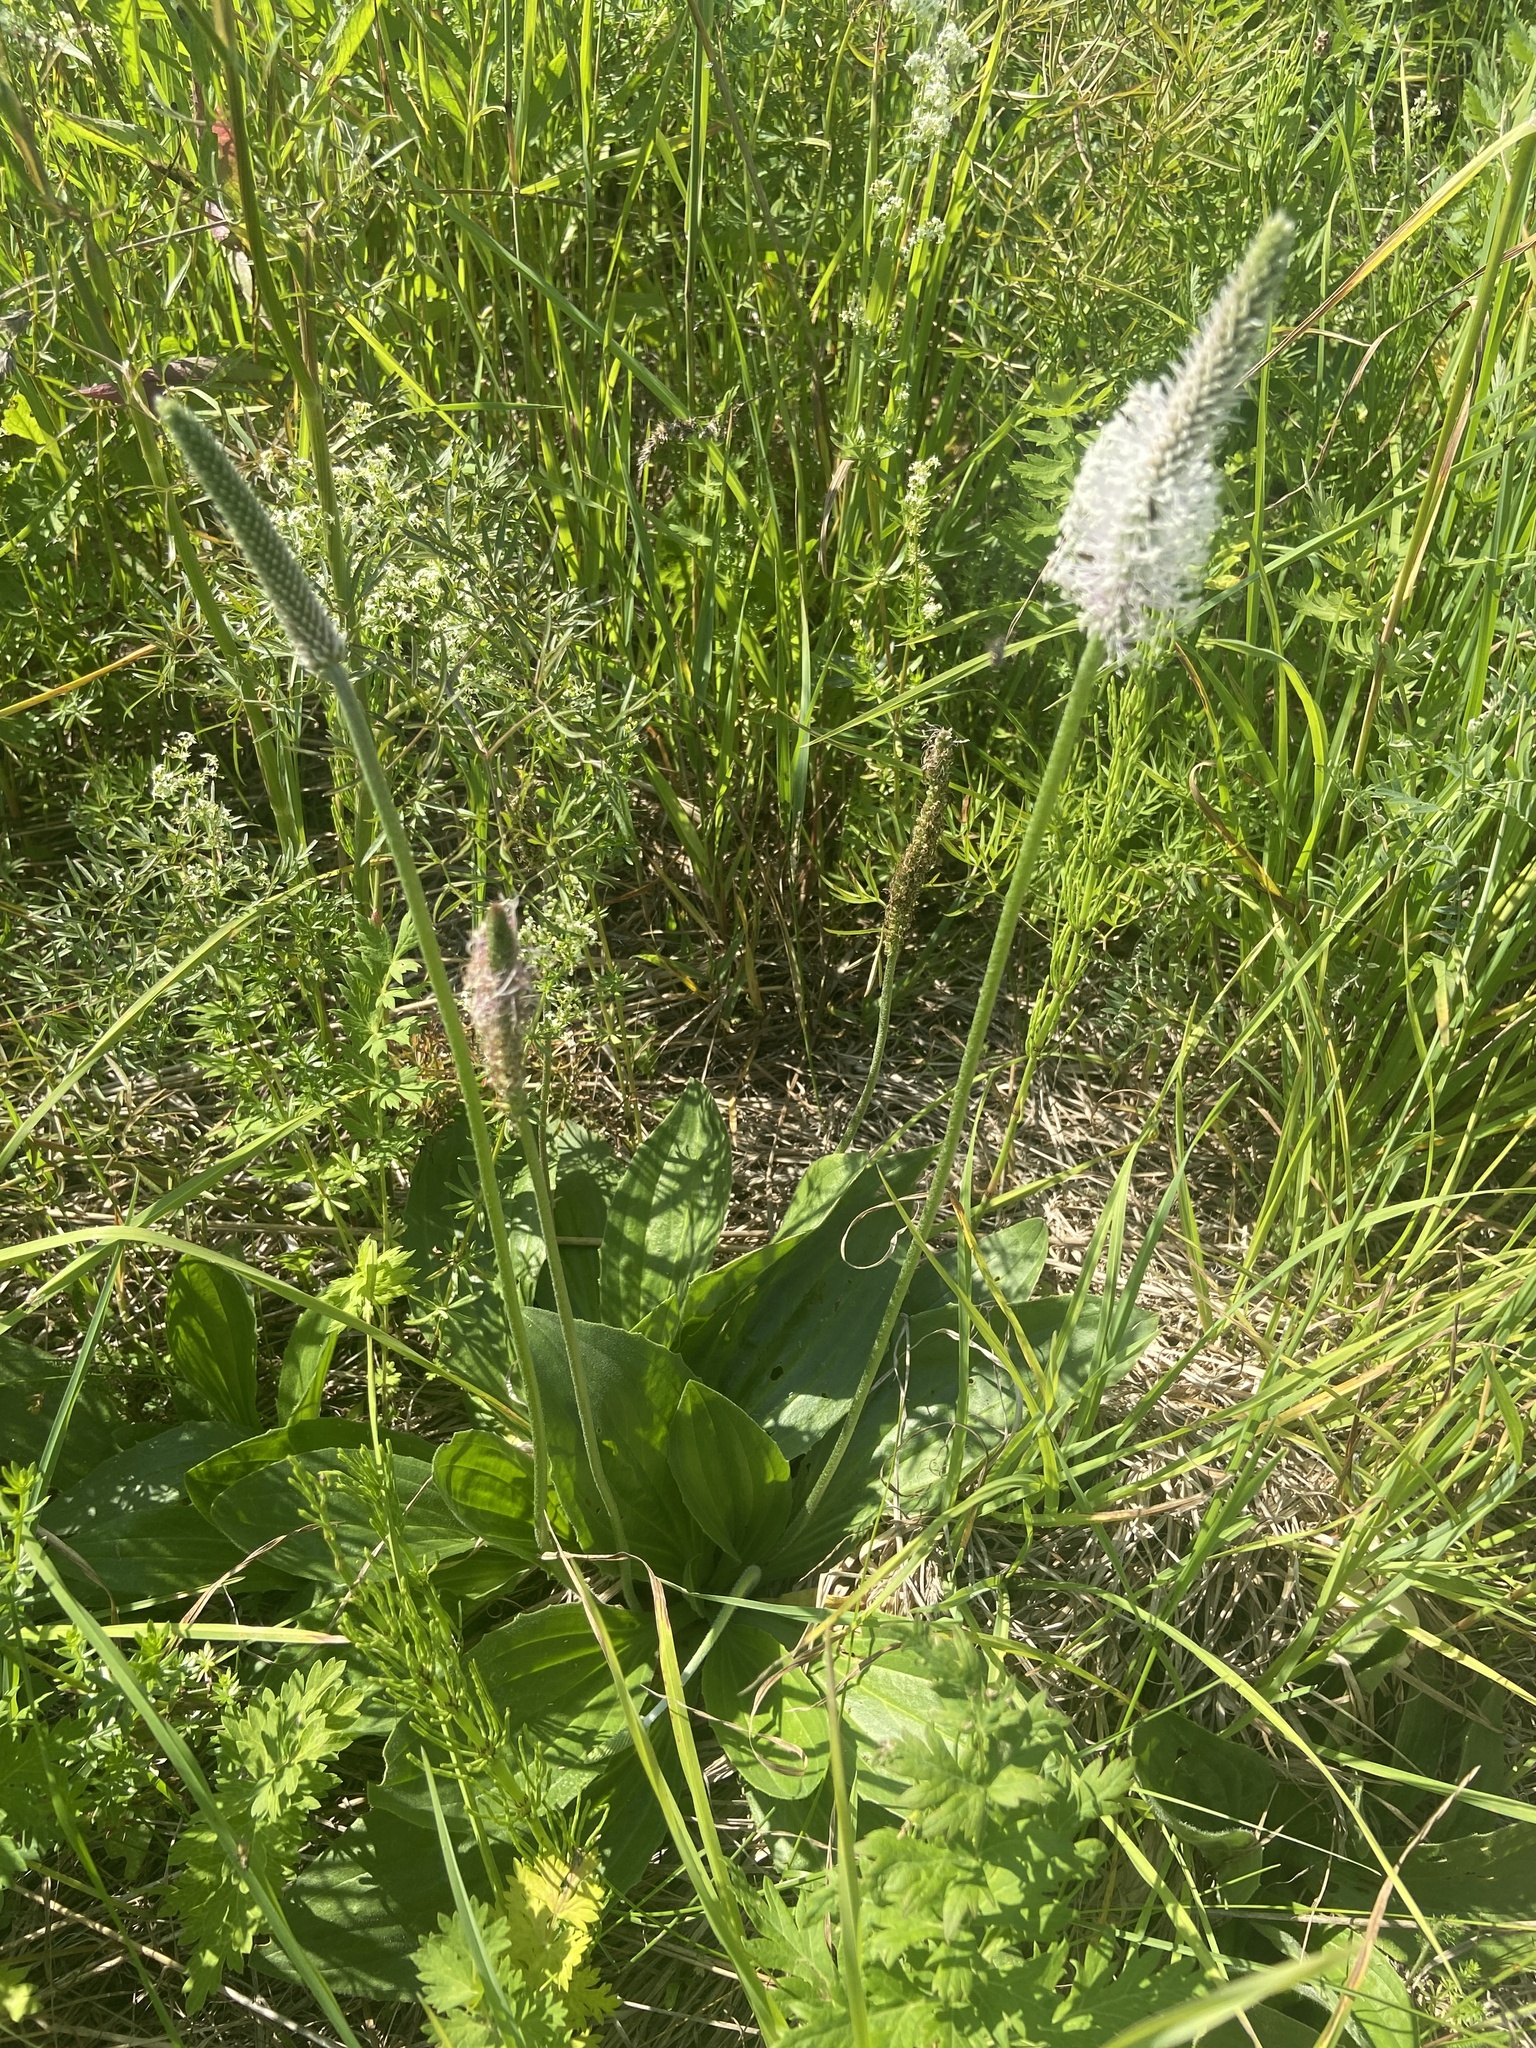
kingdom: Plantae
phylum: Tracheophyta
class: Magnoliopsida
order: Lamiales
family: Plantaginaceae
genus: Plantago
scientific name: Plantago media
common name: Hoary plantain
